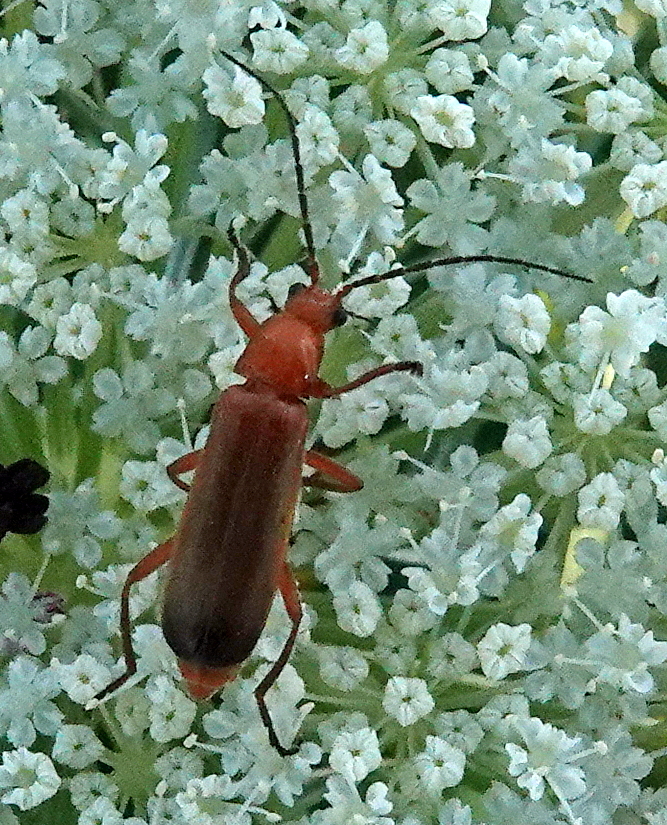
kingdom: Animalia
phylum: Arthropoda
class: Insecta
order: Coleoptera
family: Cantharidae
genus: Rhagonycha
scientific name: Rhagonycha fulva
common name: Common red soldier beetle
